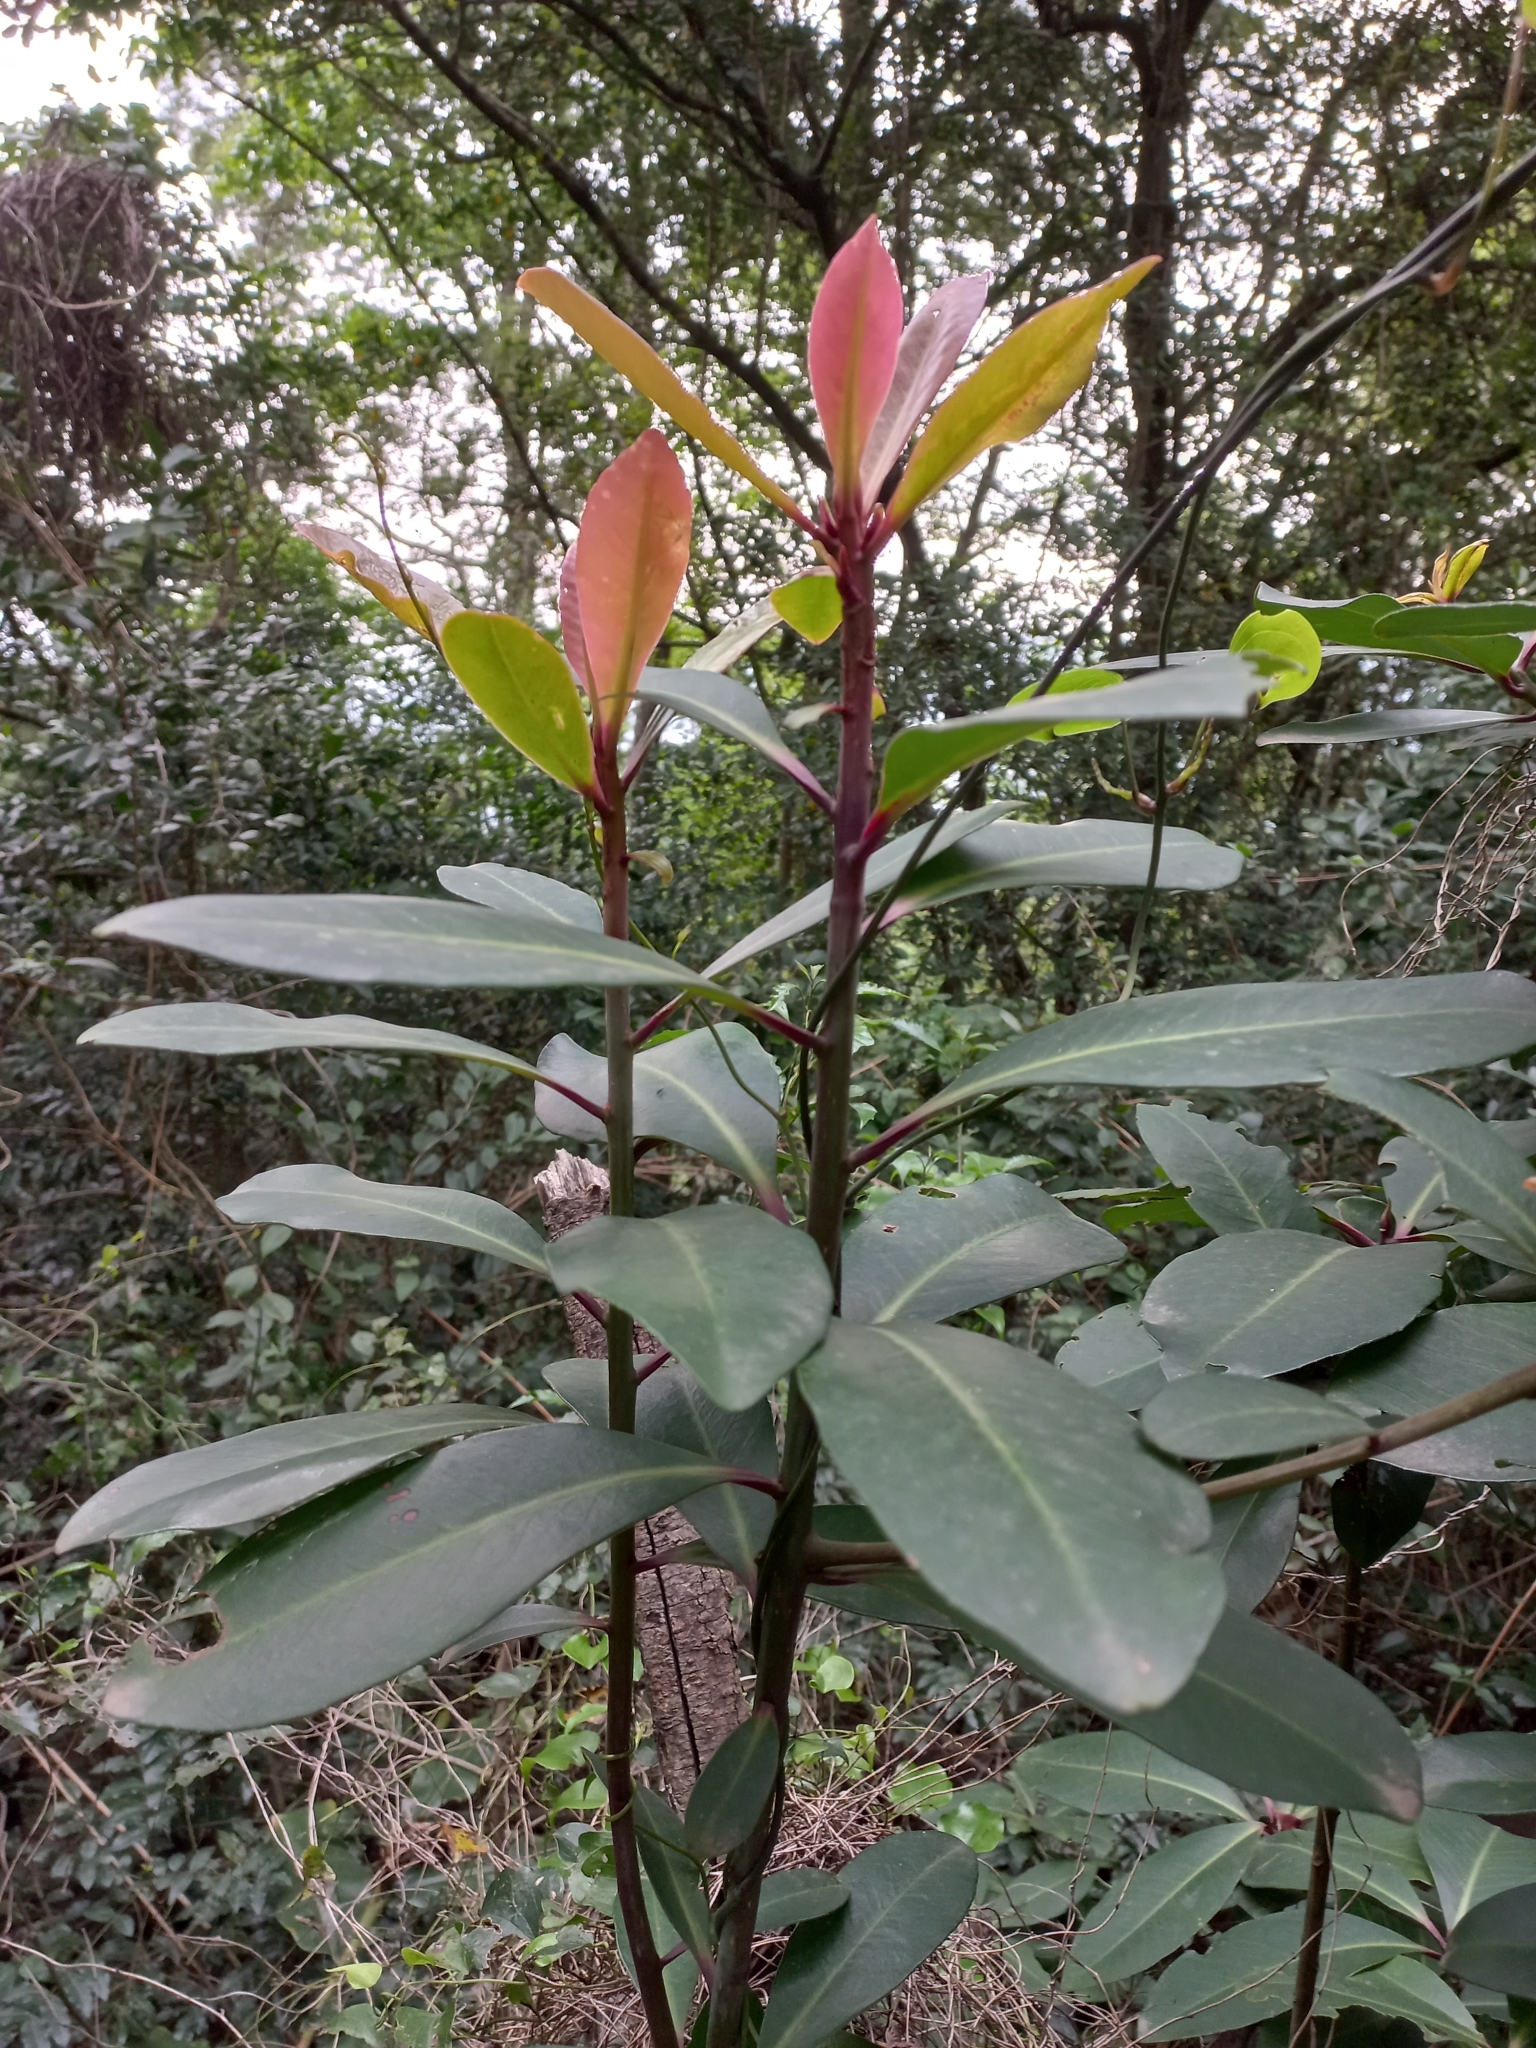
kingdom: Plantae
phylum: Tracheophyta
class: Magnoliopsida
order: Ericales
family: Primulaceae
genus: Myrsine
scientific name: Myrsine melanophloeos
